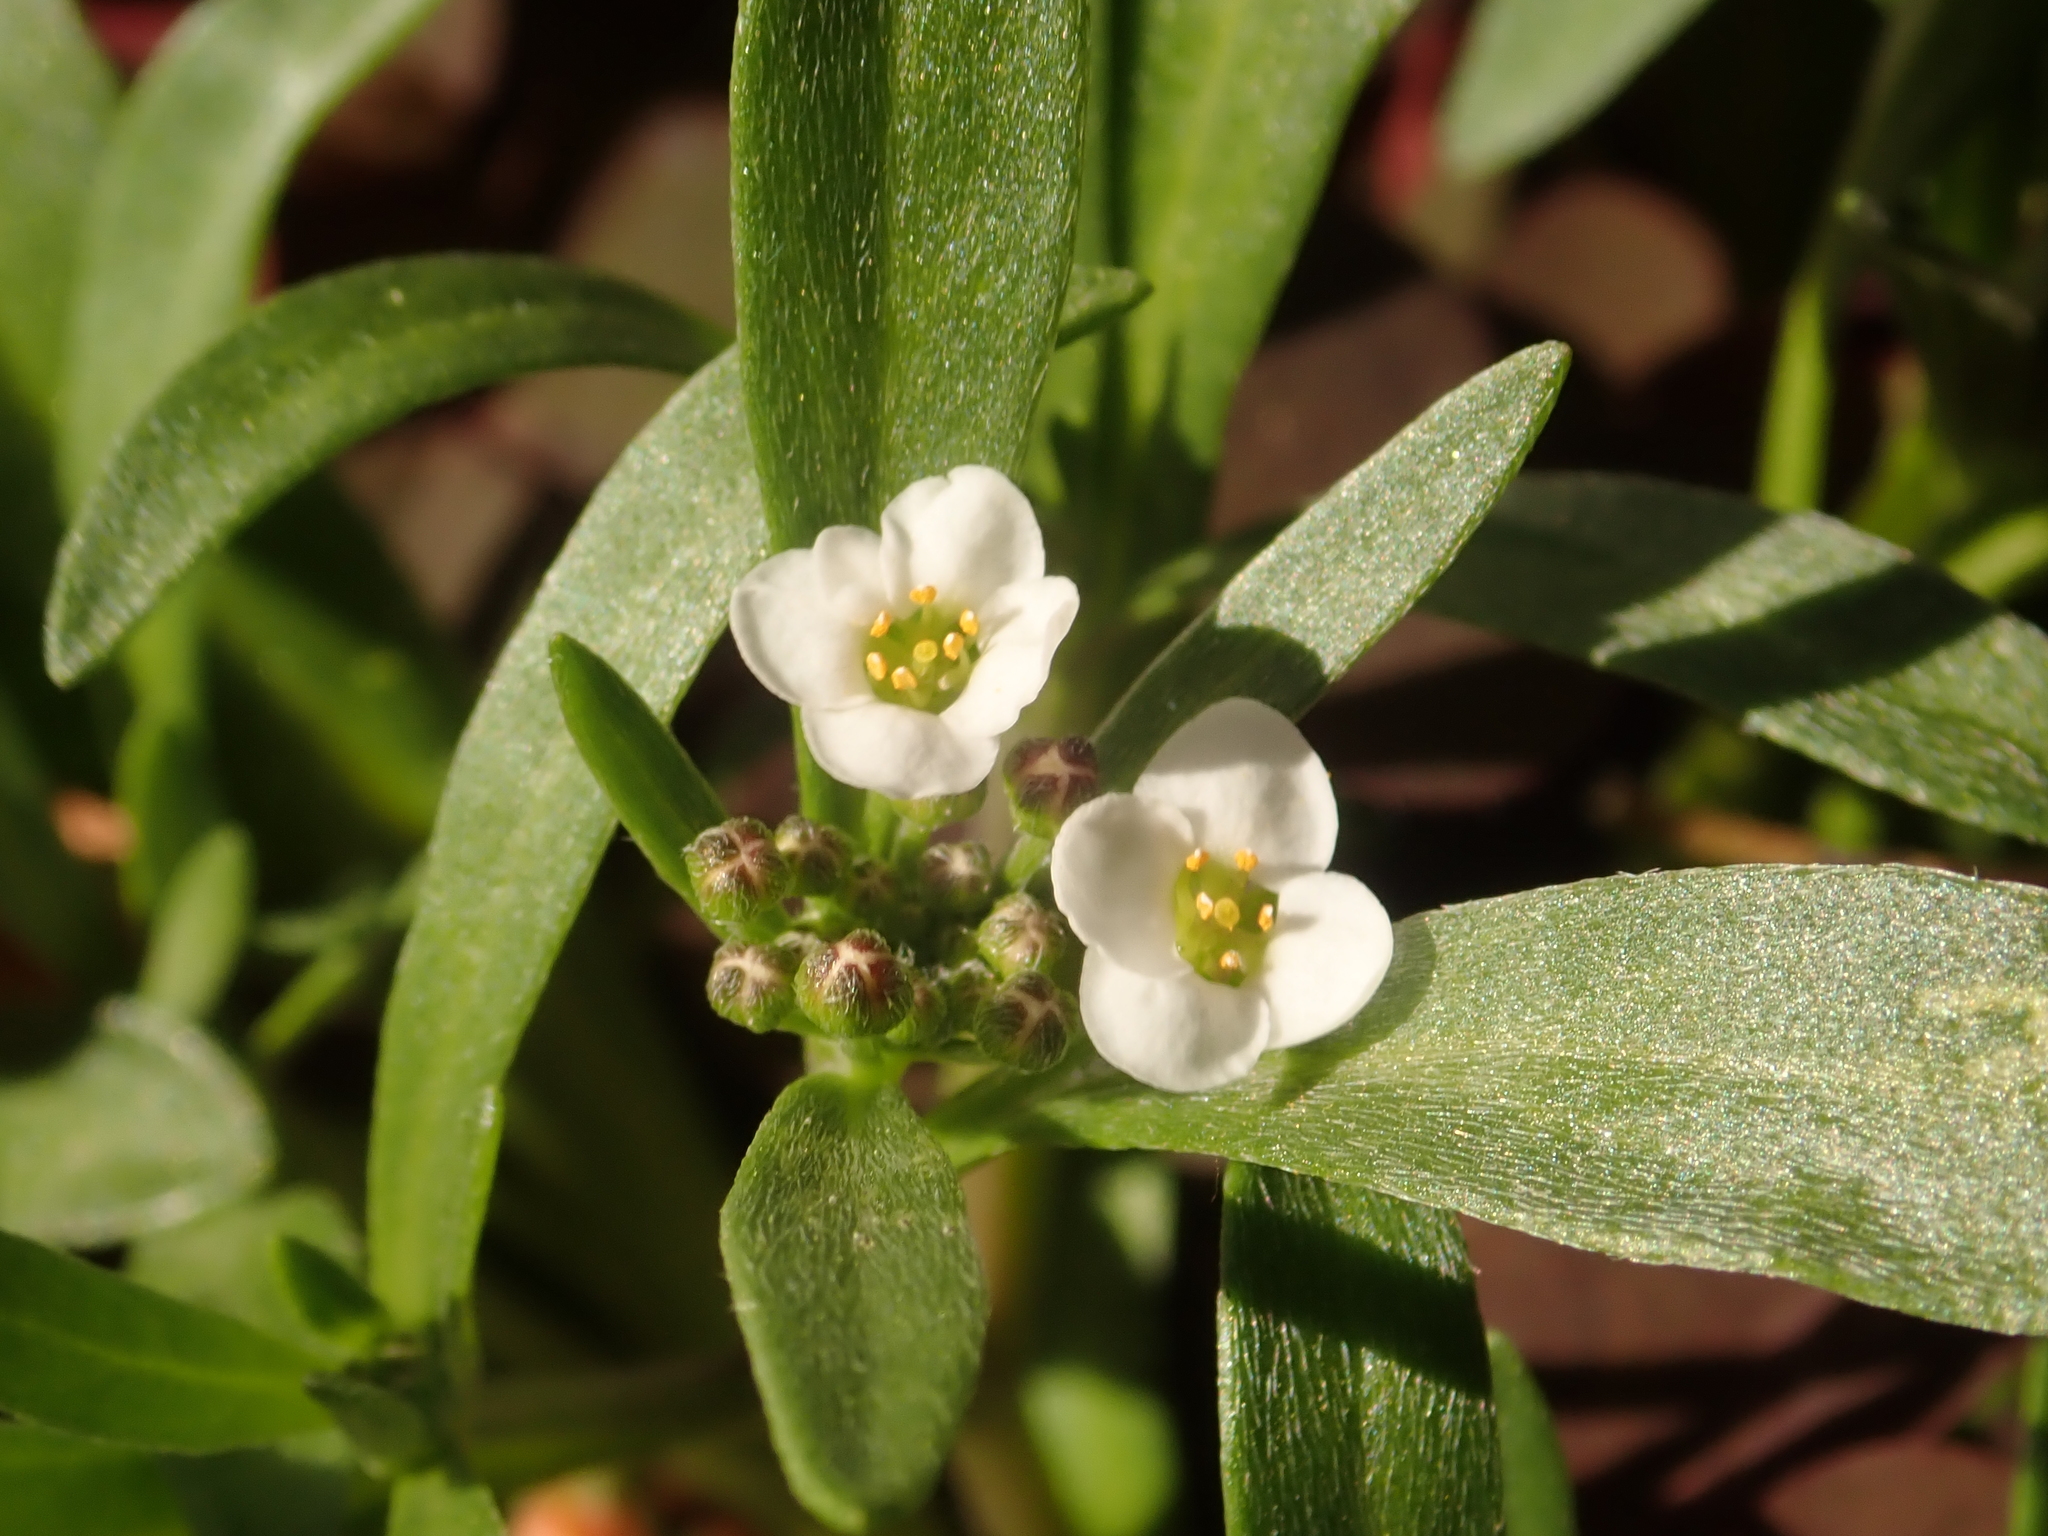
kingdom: Plantae
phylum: Tracheophyta
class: Magnoliopsida
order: Brassicales
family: Brassicaceae
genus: Lobularia
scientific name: Lobularia maritima
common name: Sweet alison
